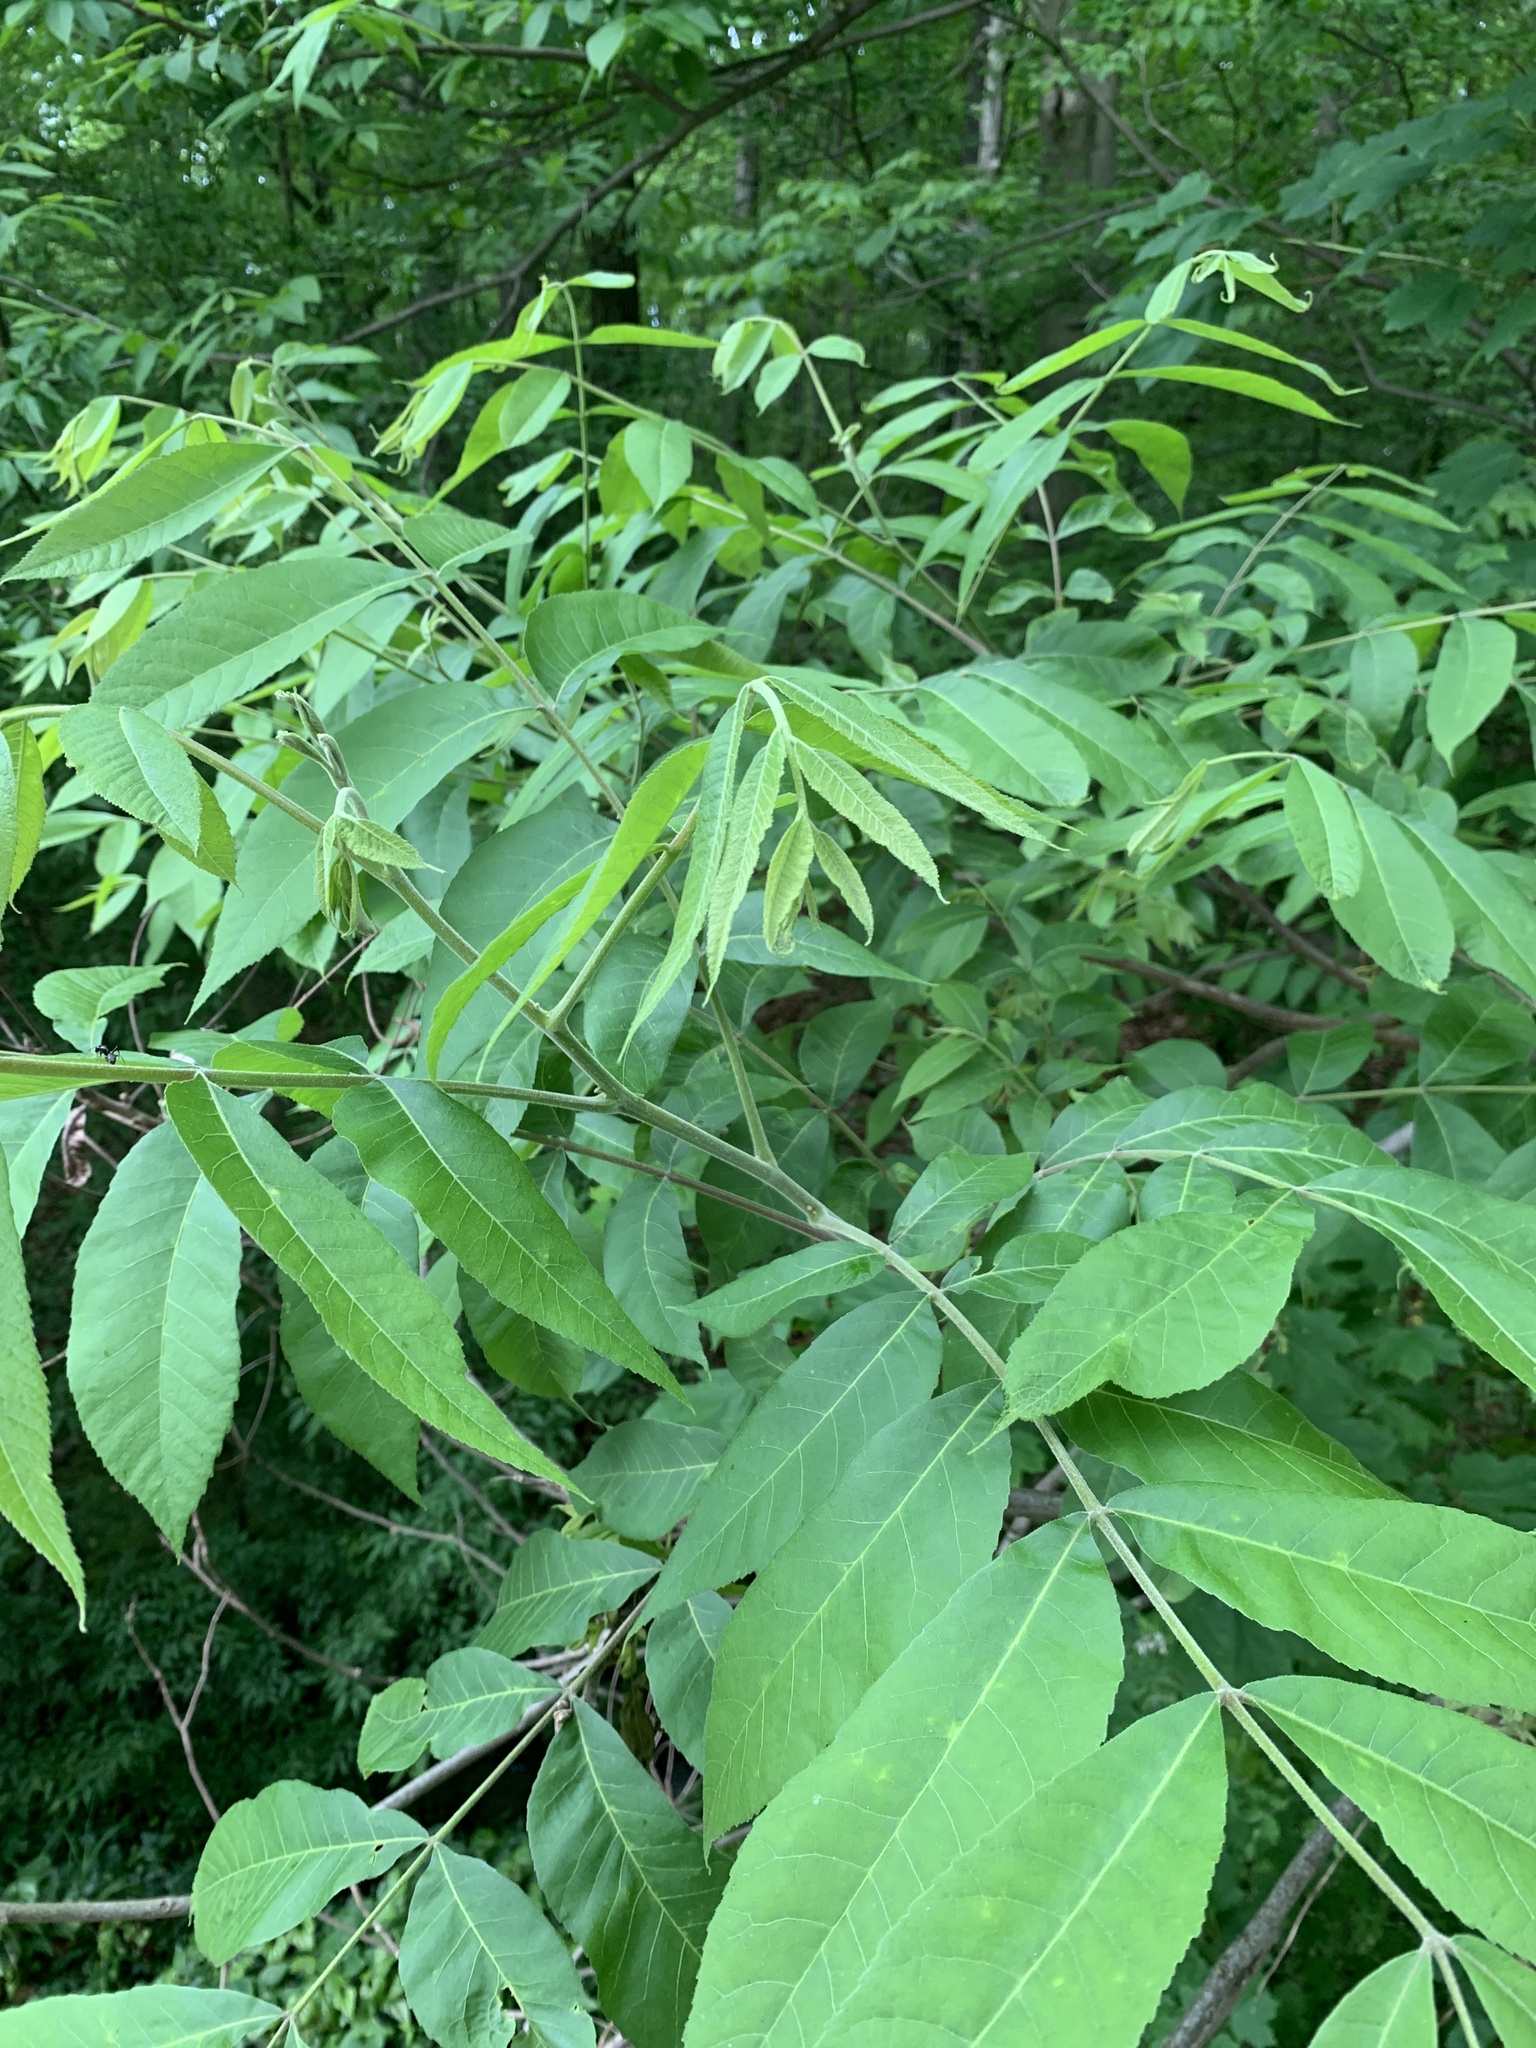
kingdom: Plantae
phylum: Tracheophyta
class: Magnoliopsida
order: Fagales
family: Juglandaceae
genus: Carya
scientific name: Carya illinoinensis
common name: Pecan
